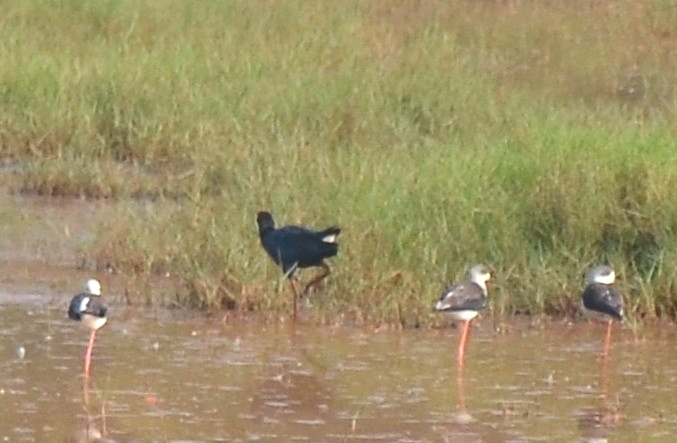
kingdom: Animalia
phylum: Chordata
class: Aves
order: Charadriiformes
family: Recurvirostridae
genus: Himantopus
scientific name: Himantopus himantopus
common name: Black-winged stilt
